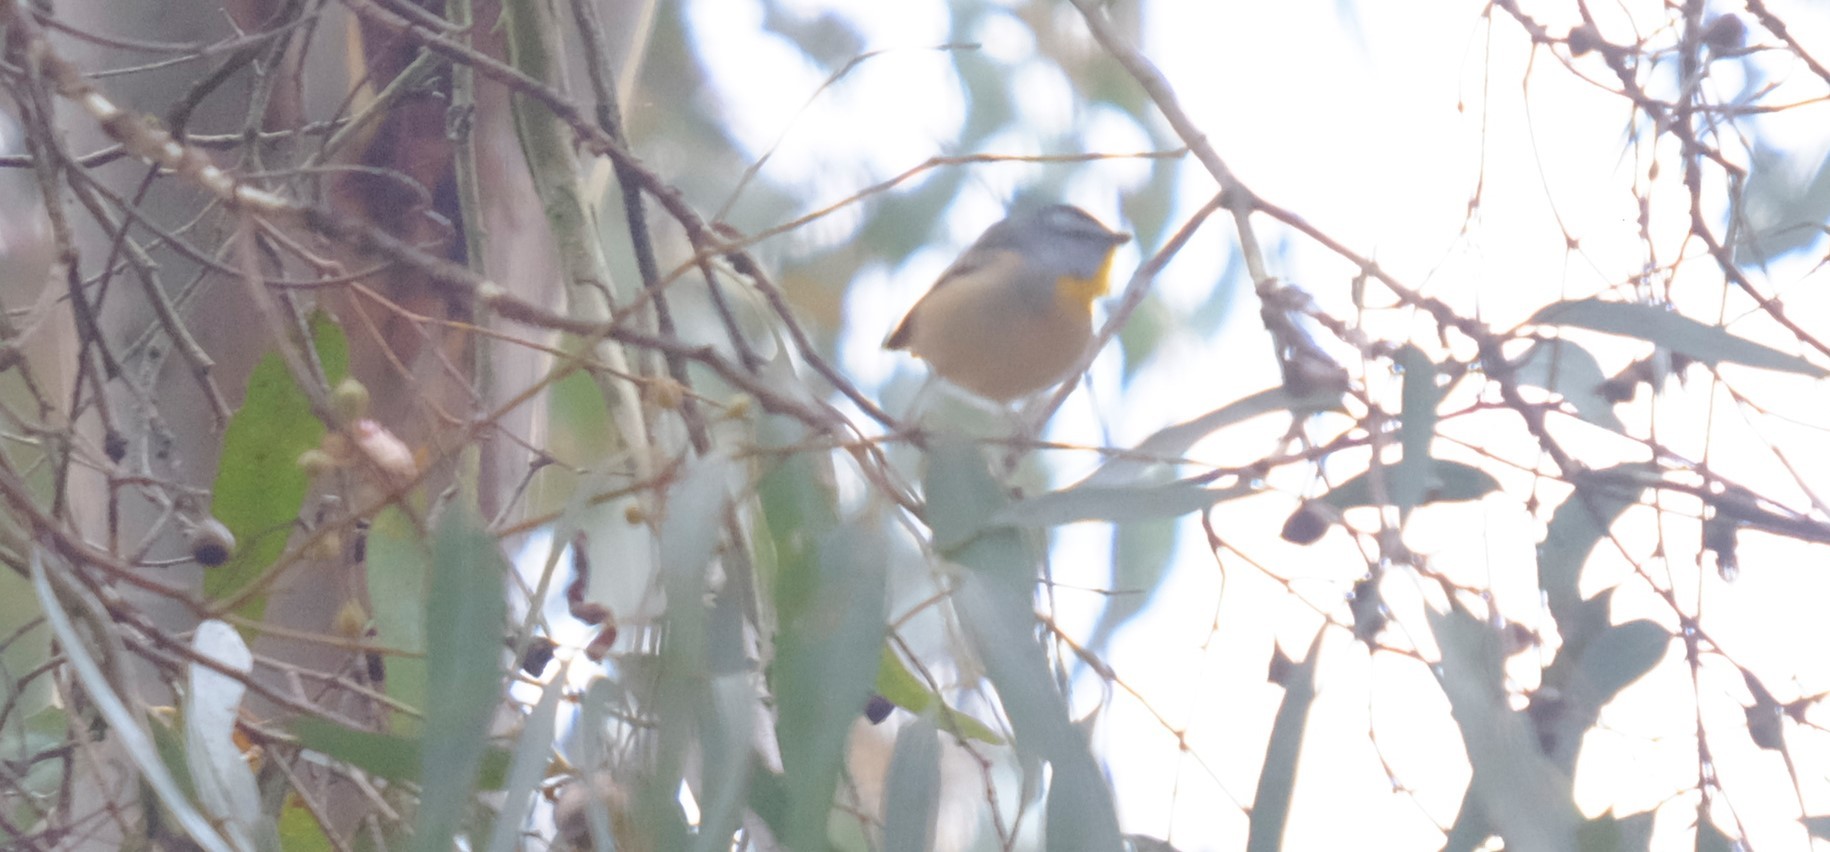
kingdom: Animalia
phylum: Chordata
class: Aves
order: Passeriformes
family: Pardalotidae
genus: Pardalotus
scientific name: Pardalotus punctatus
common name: Spotted pardalote
